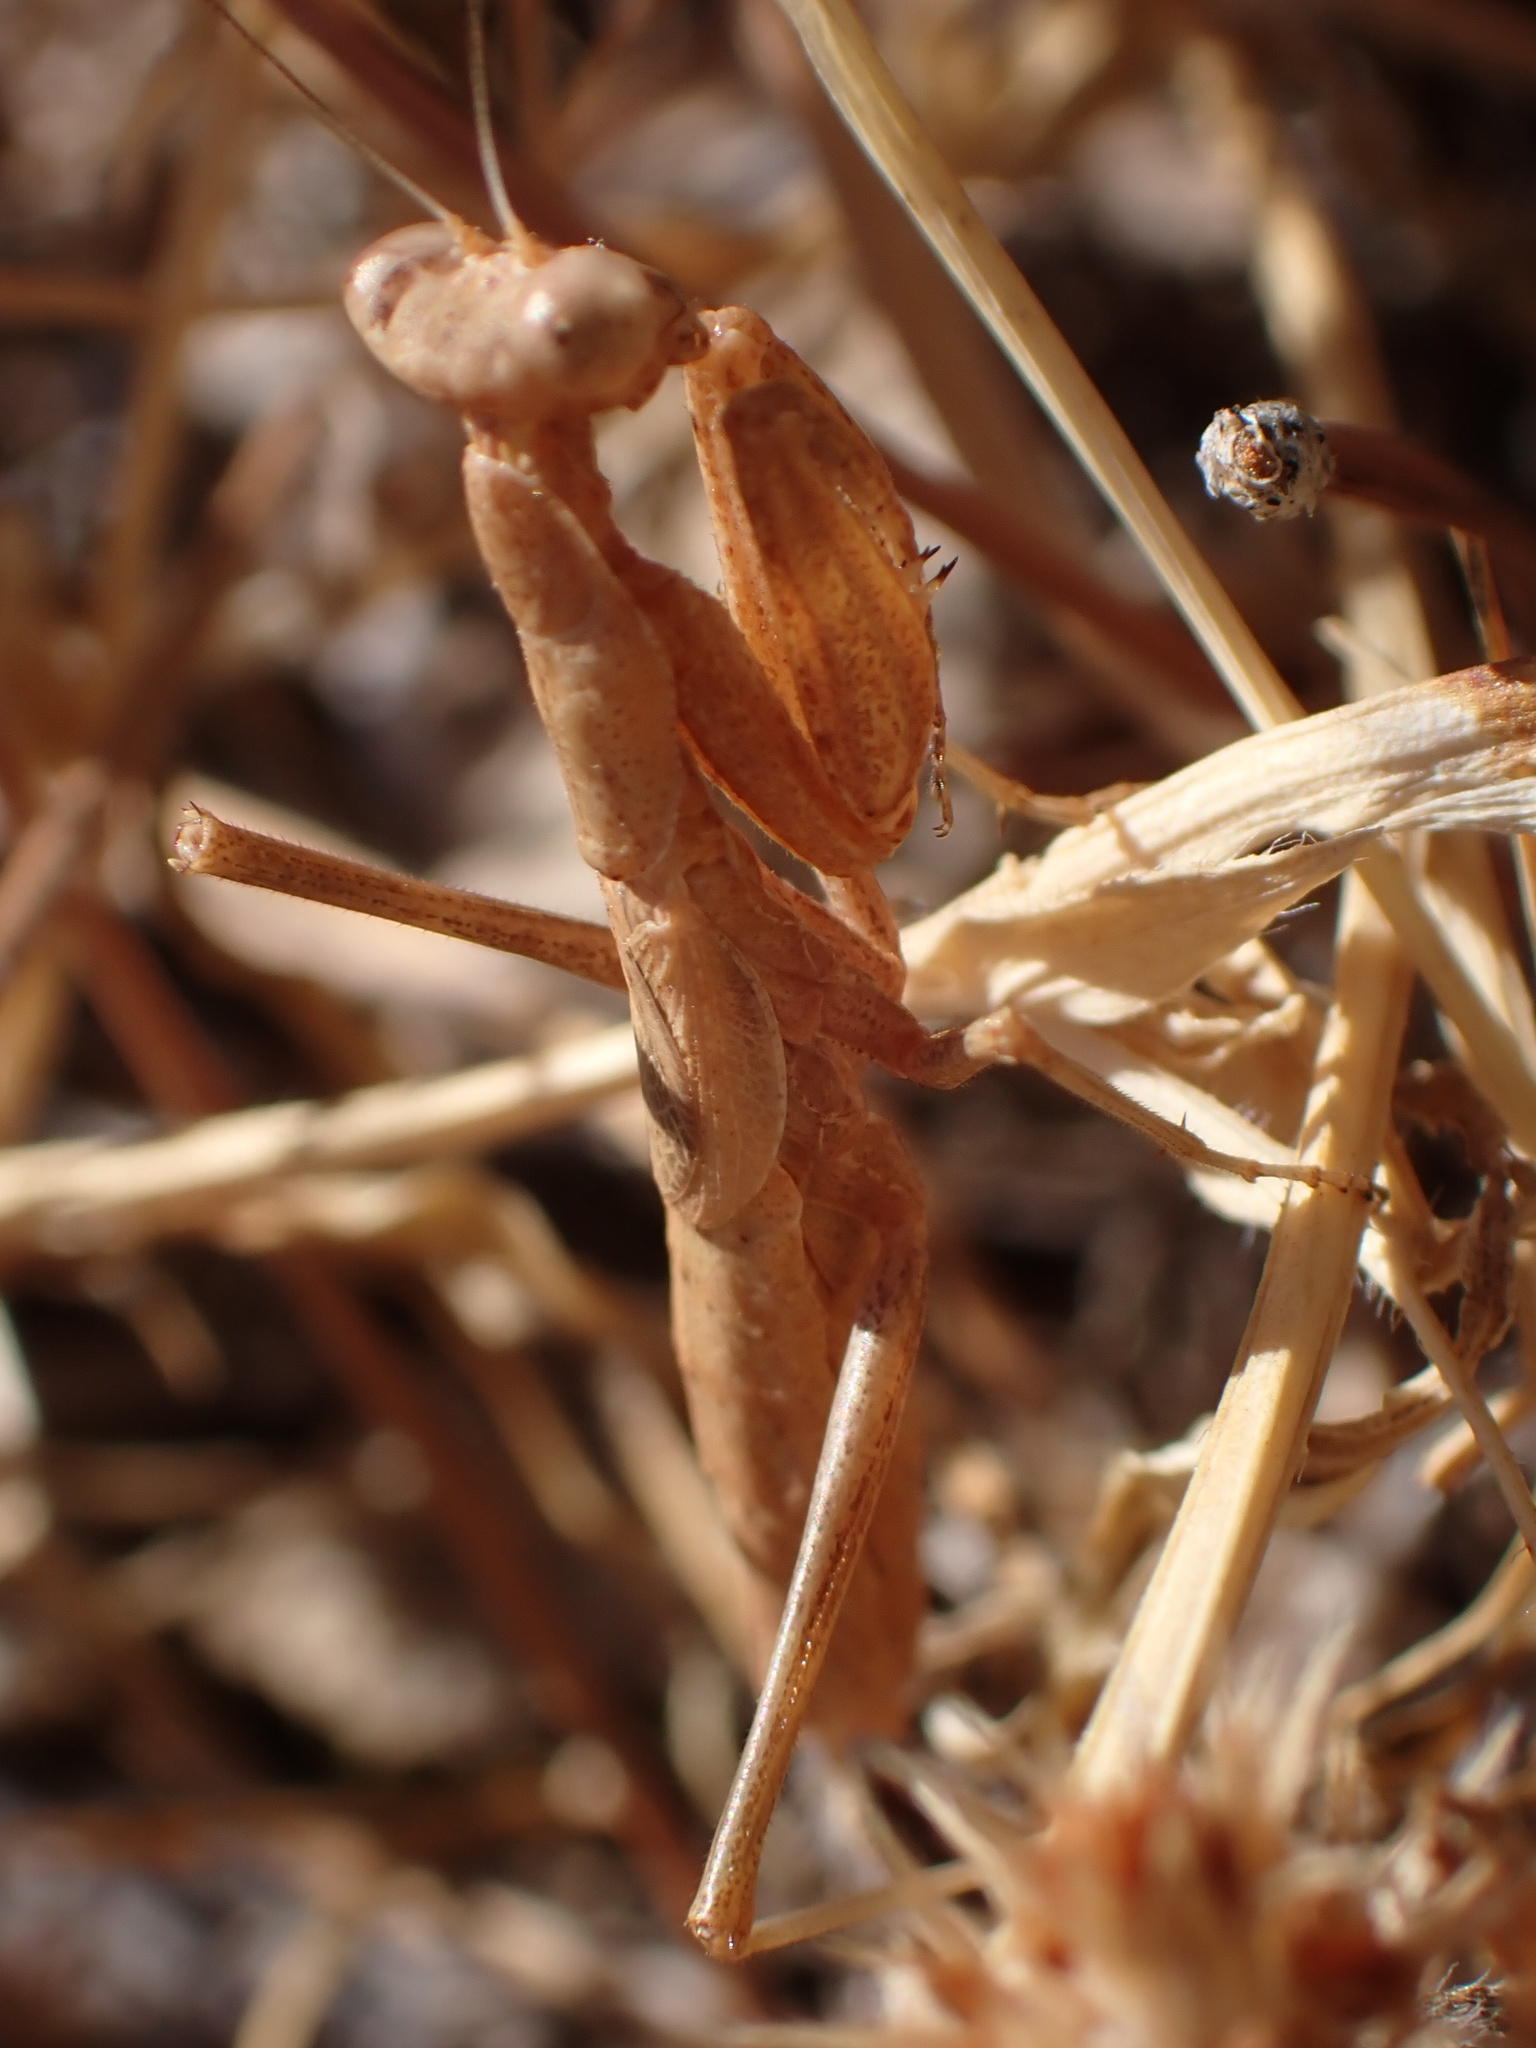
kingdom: Animalia
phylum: Arthropoda
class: Insecta
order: Mantodea
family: Amelidae
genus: Ameles
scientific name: Ameles decolor
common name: Dwarf mantis
